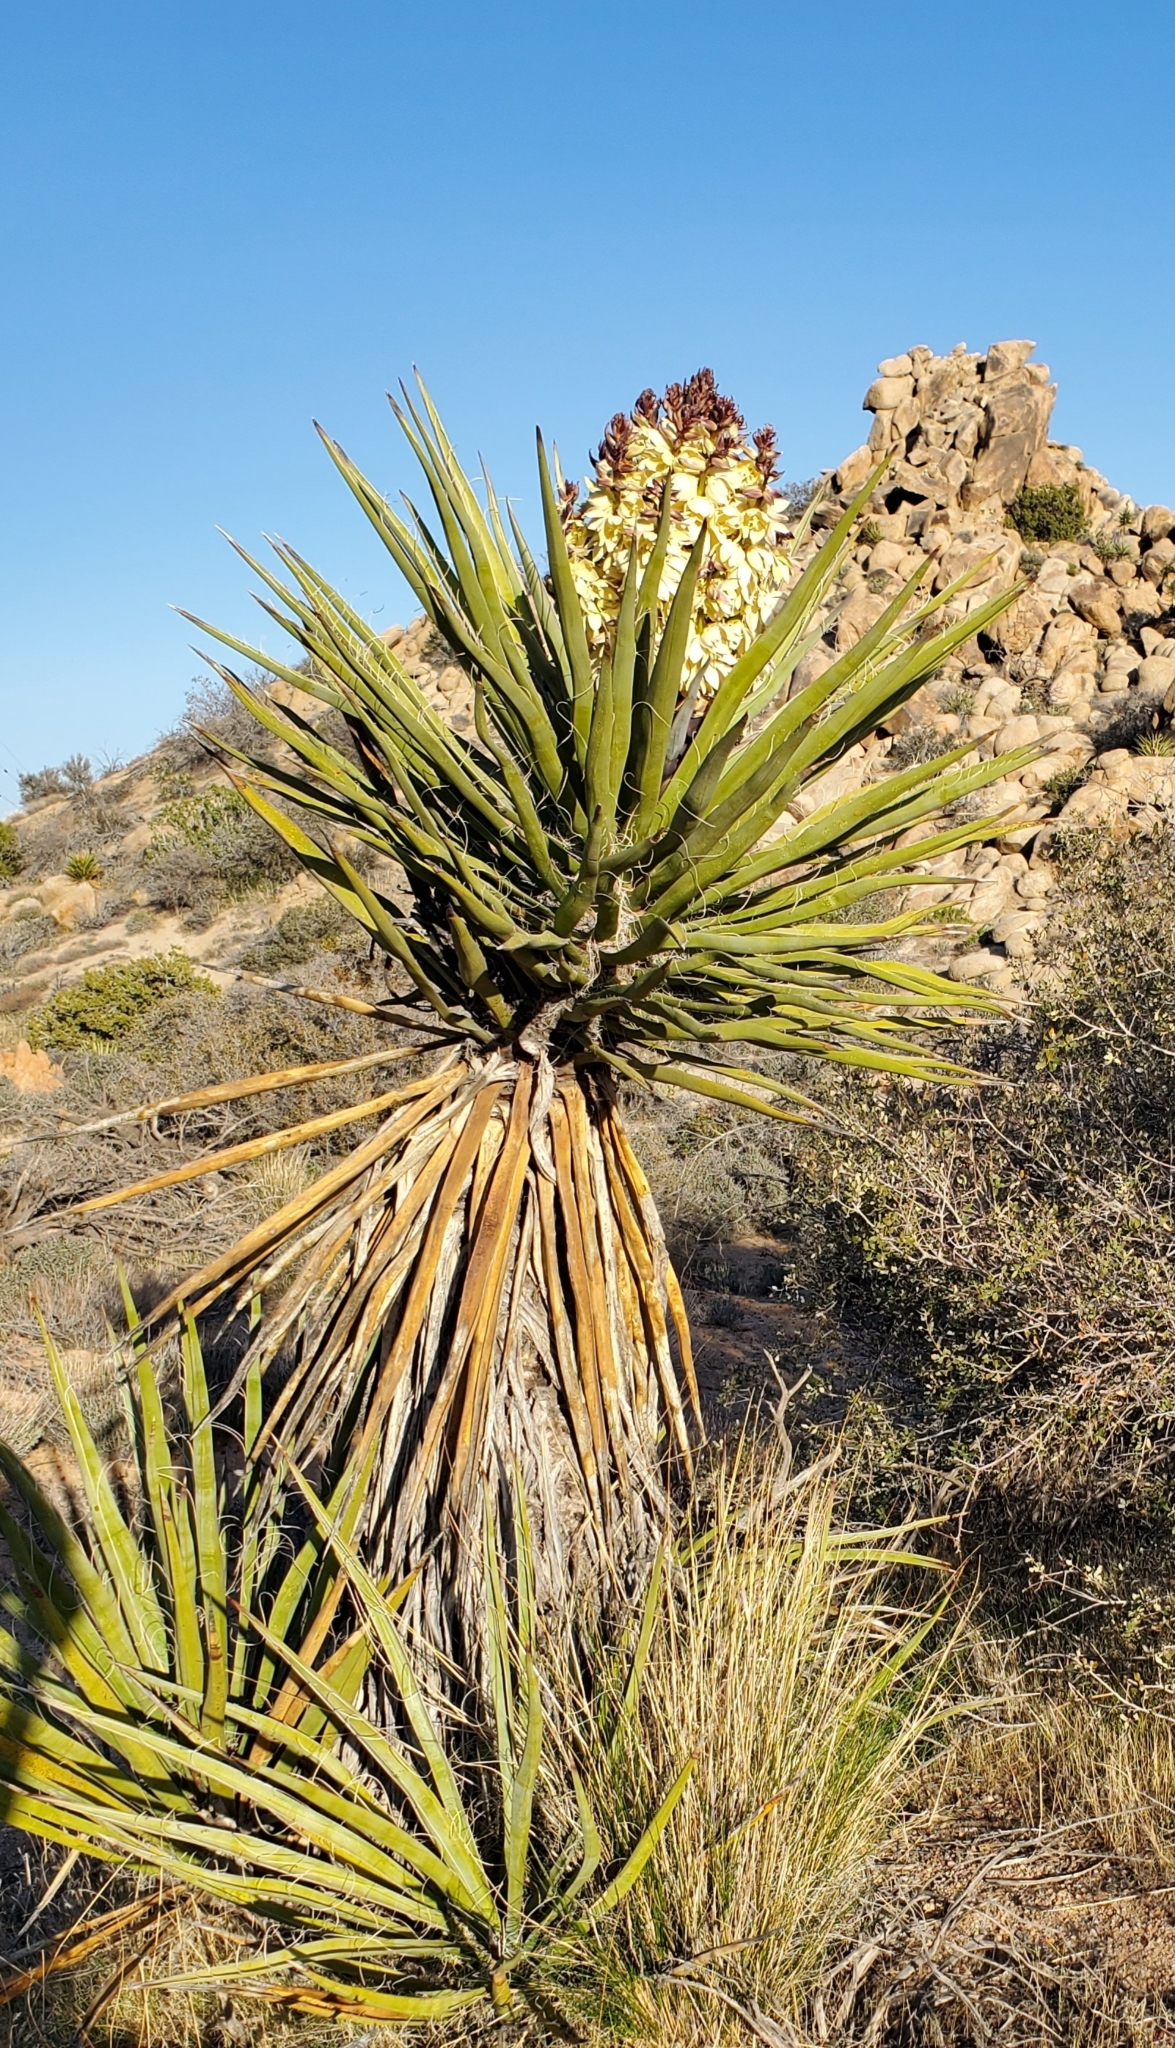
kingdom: Plantae
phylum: Tracheophyta
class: Liliopsida
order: Asparagales
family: Asparagaceae
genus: Yucca
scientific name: Yucca schidigera
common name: Mojave yucca
